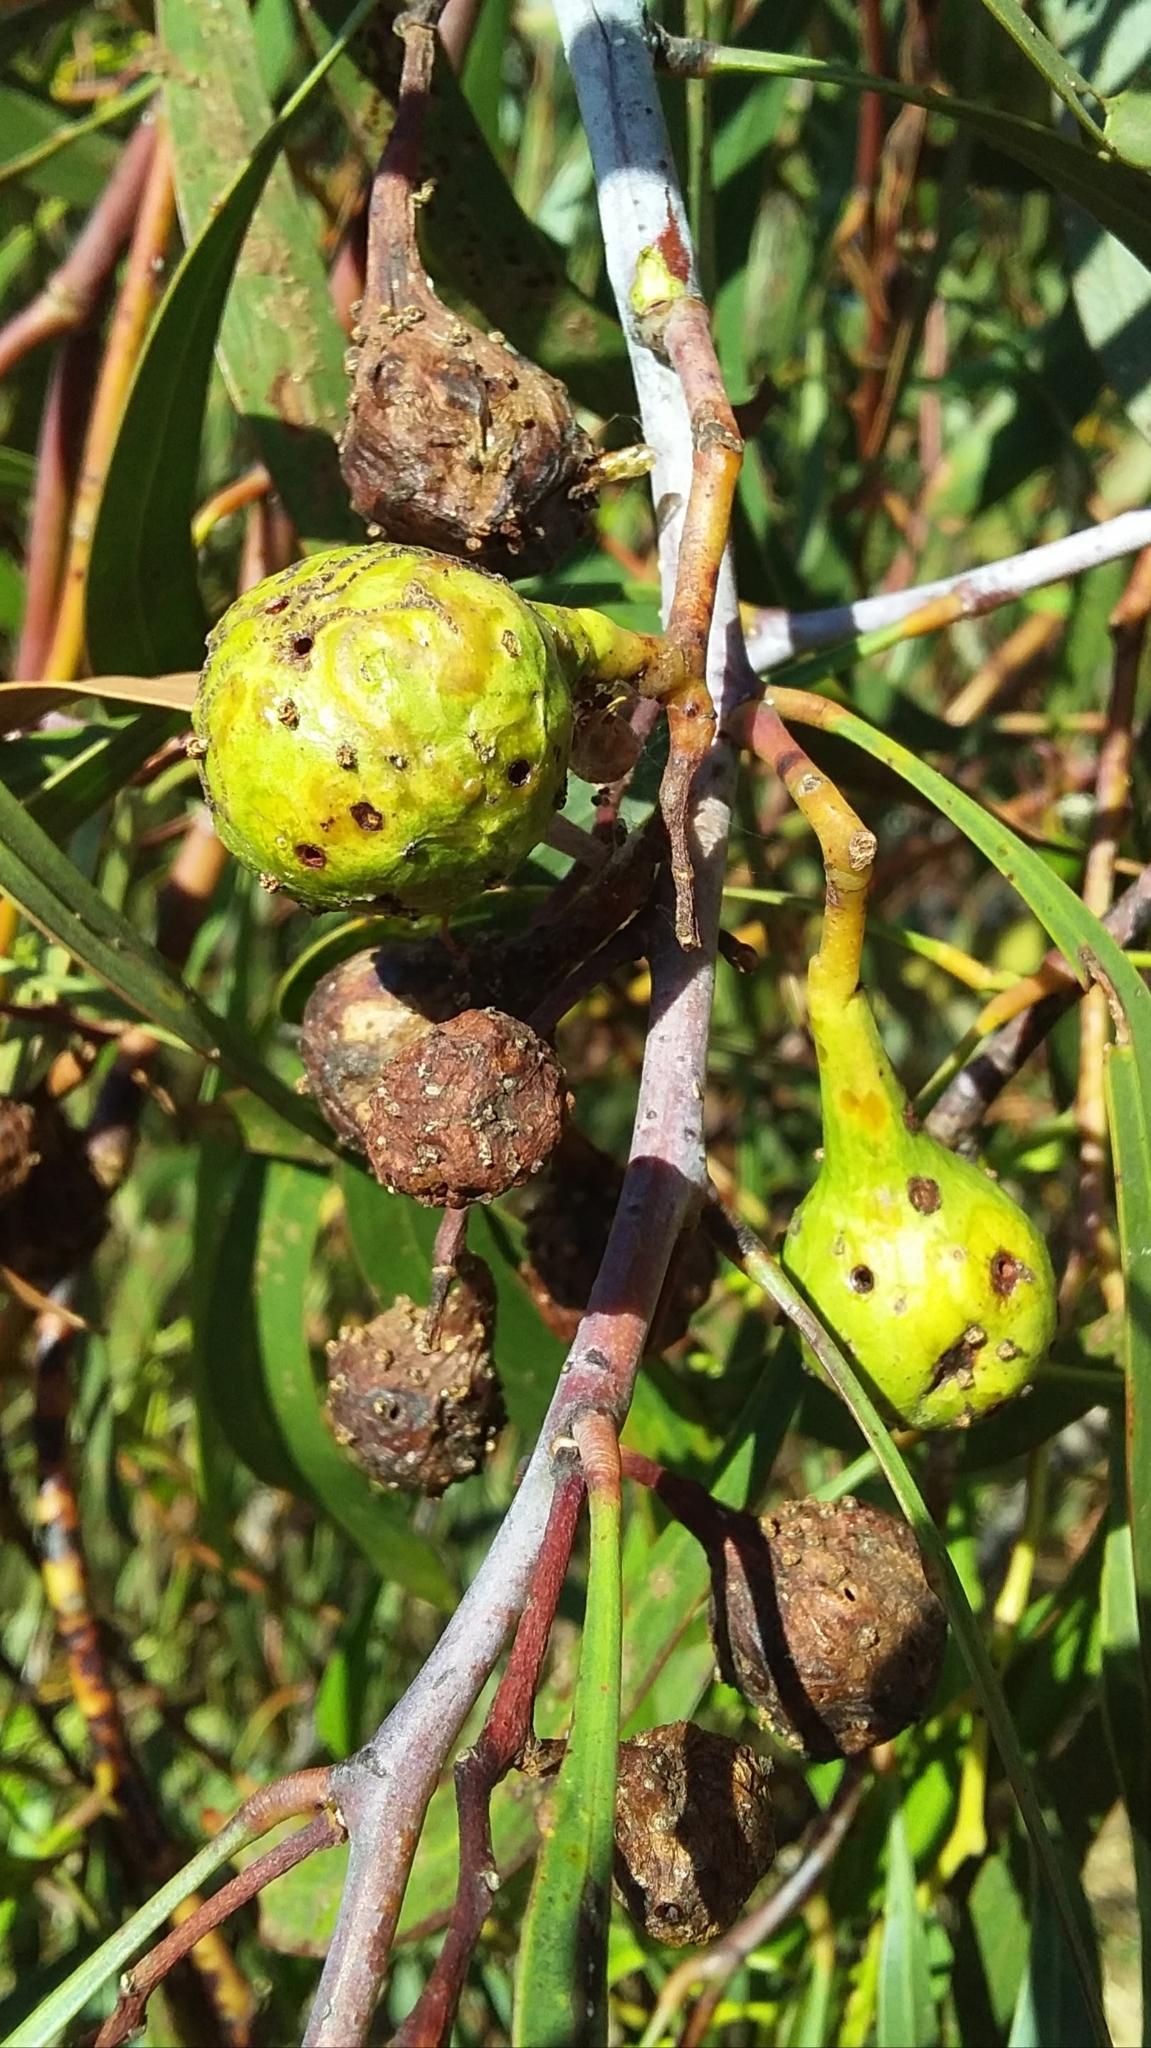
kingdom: Animalia
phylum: Arthropoda
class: Insecta
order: Hymenoptera
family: Pteromalidae
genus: Trichilogaster
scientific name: Trichilogaster signiventris
